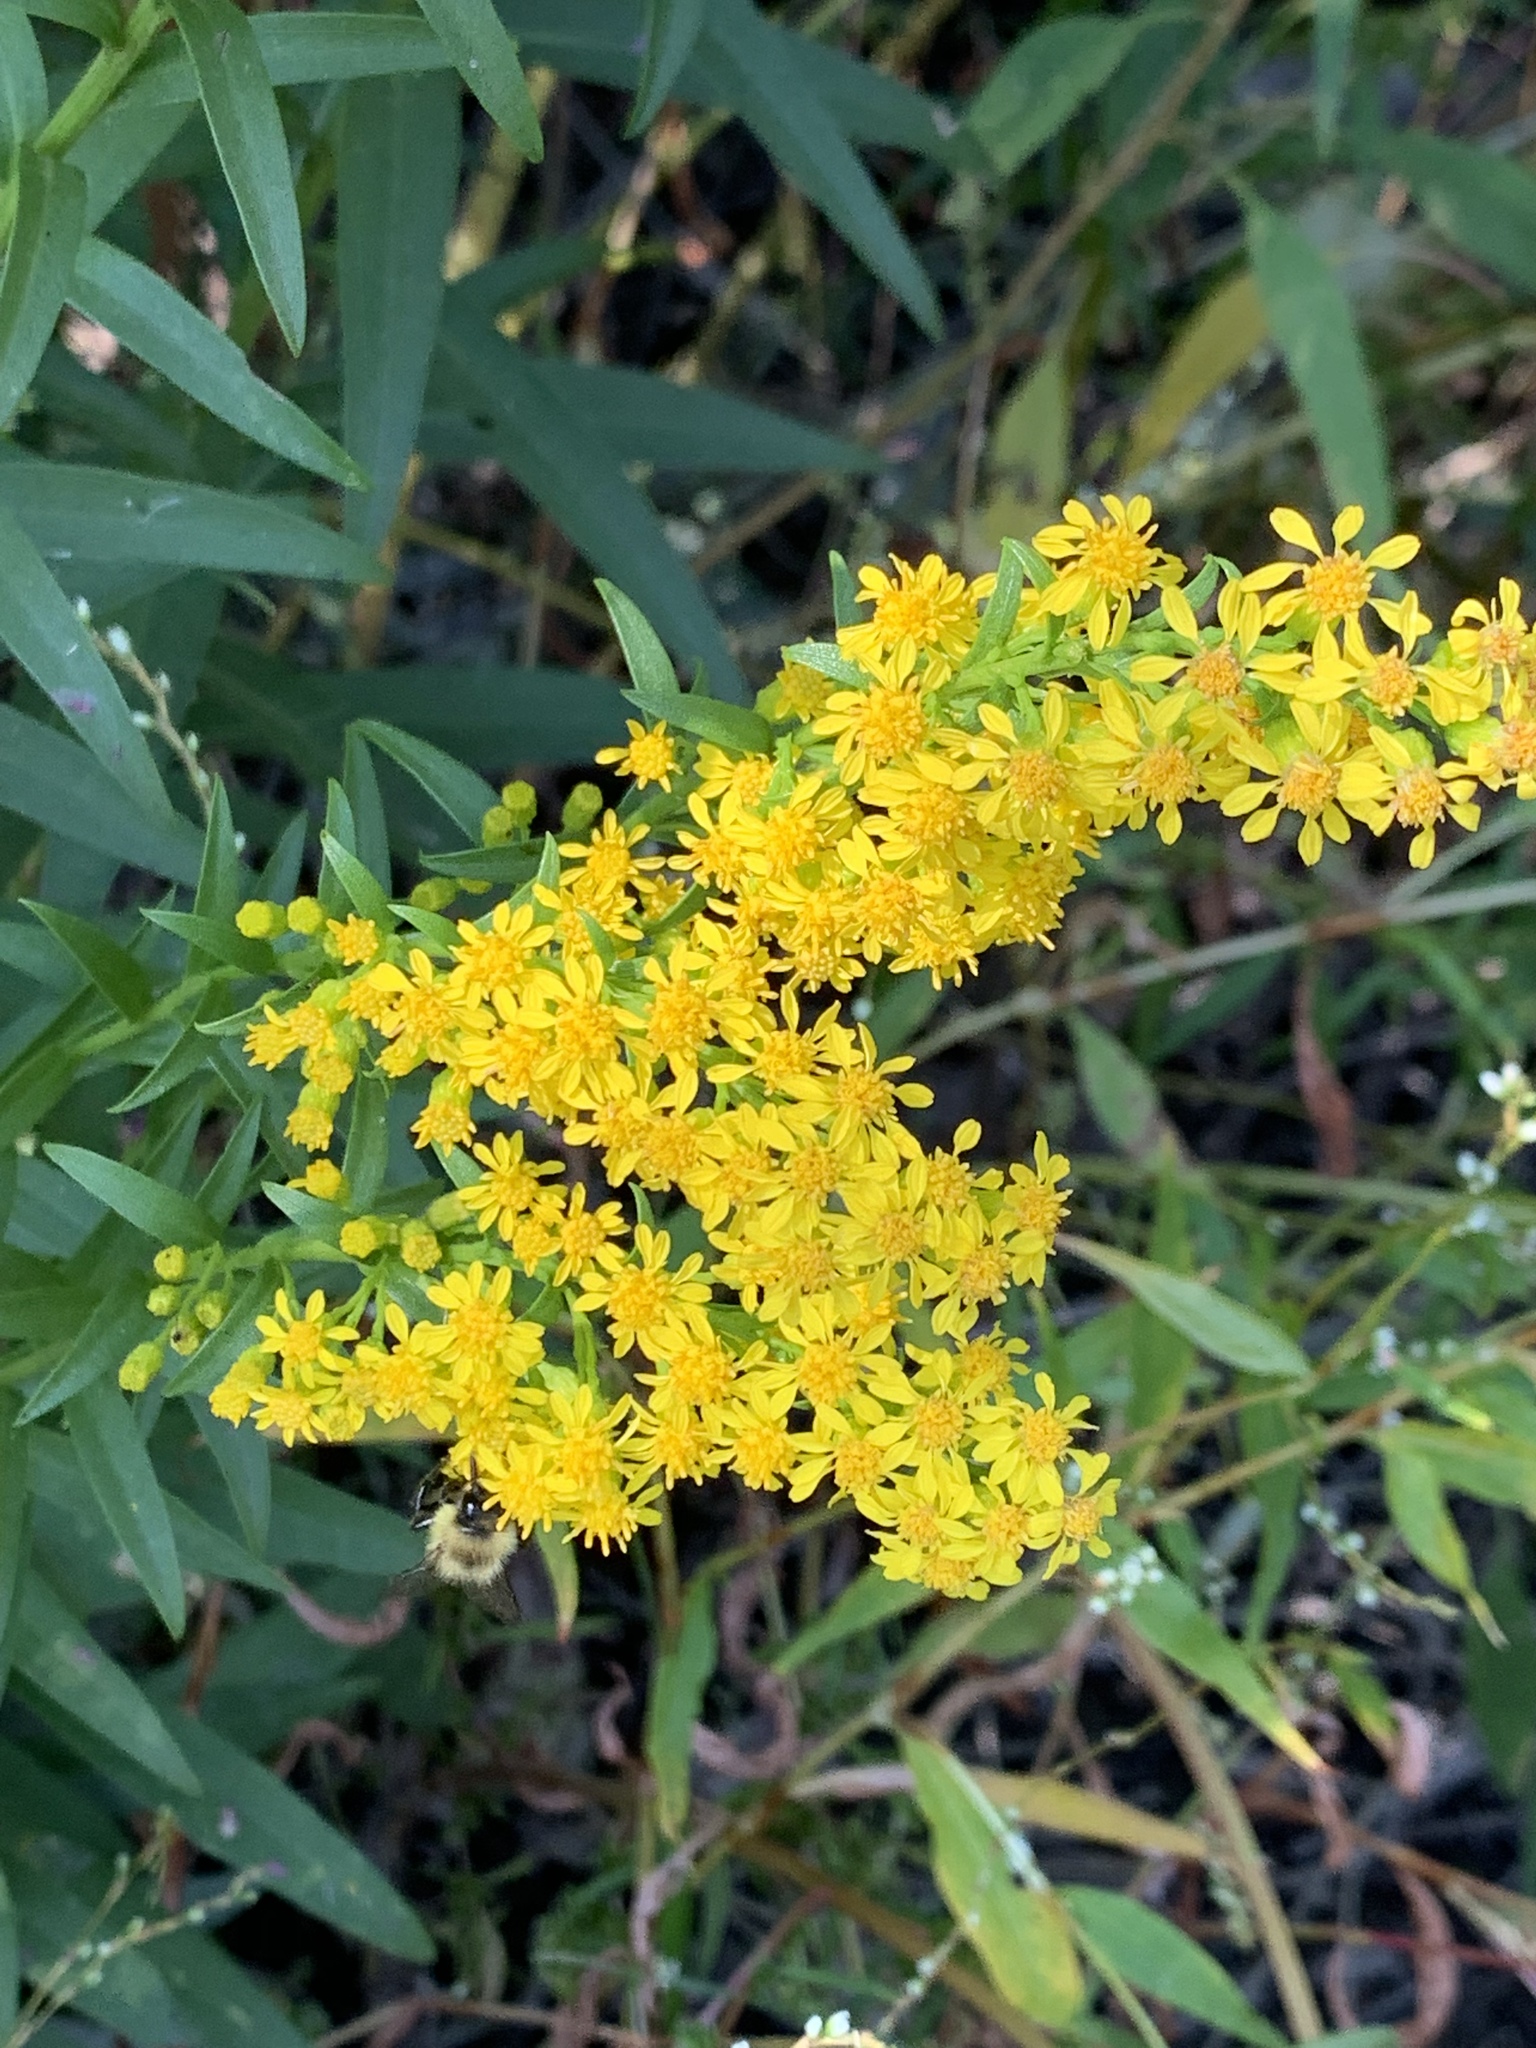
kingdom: Plantae
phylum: Tracheophyta
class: Magnoliopsida
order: Asterales
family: Asteraceae
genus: Solidago
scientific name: Solidago sempervirens
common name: Salt-marsh goldenrod
